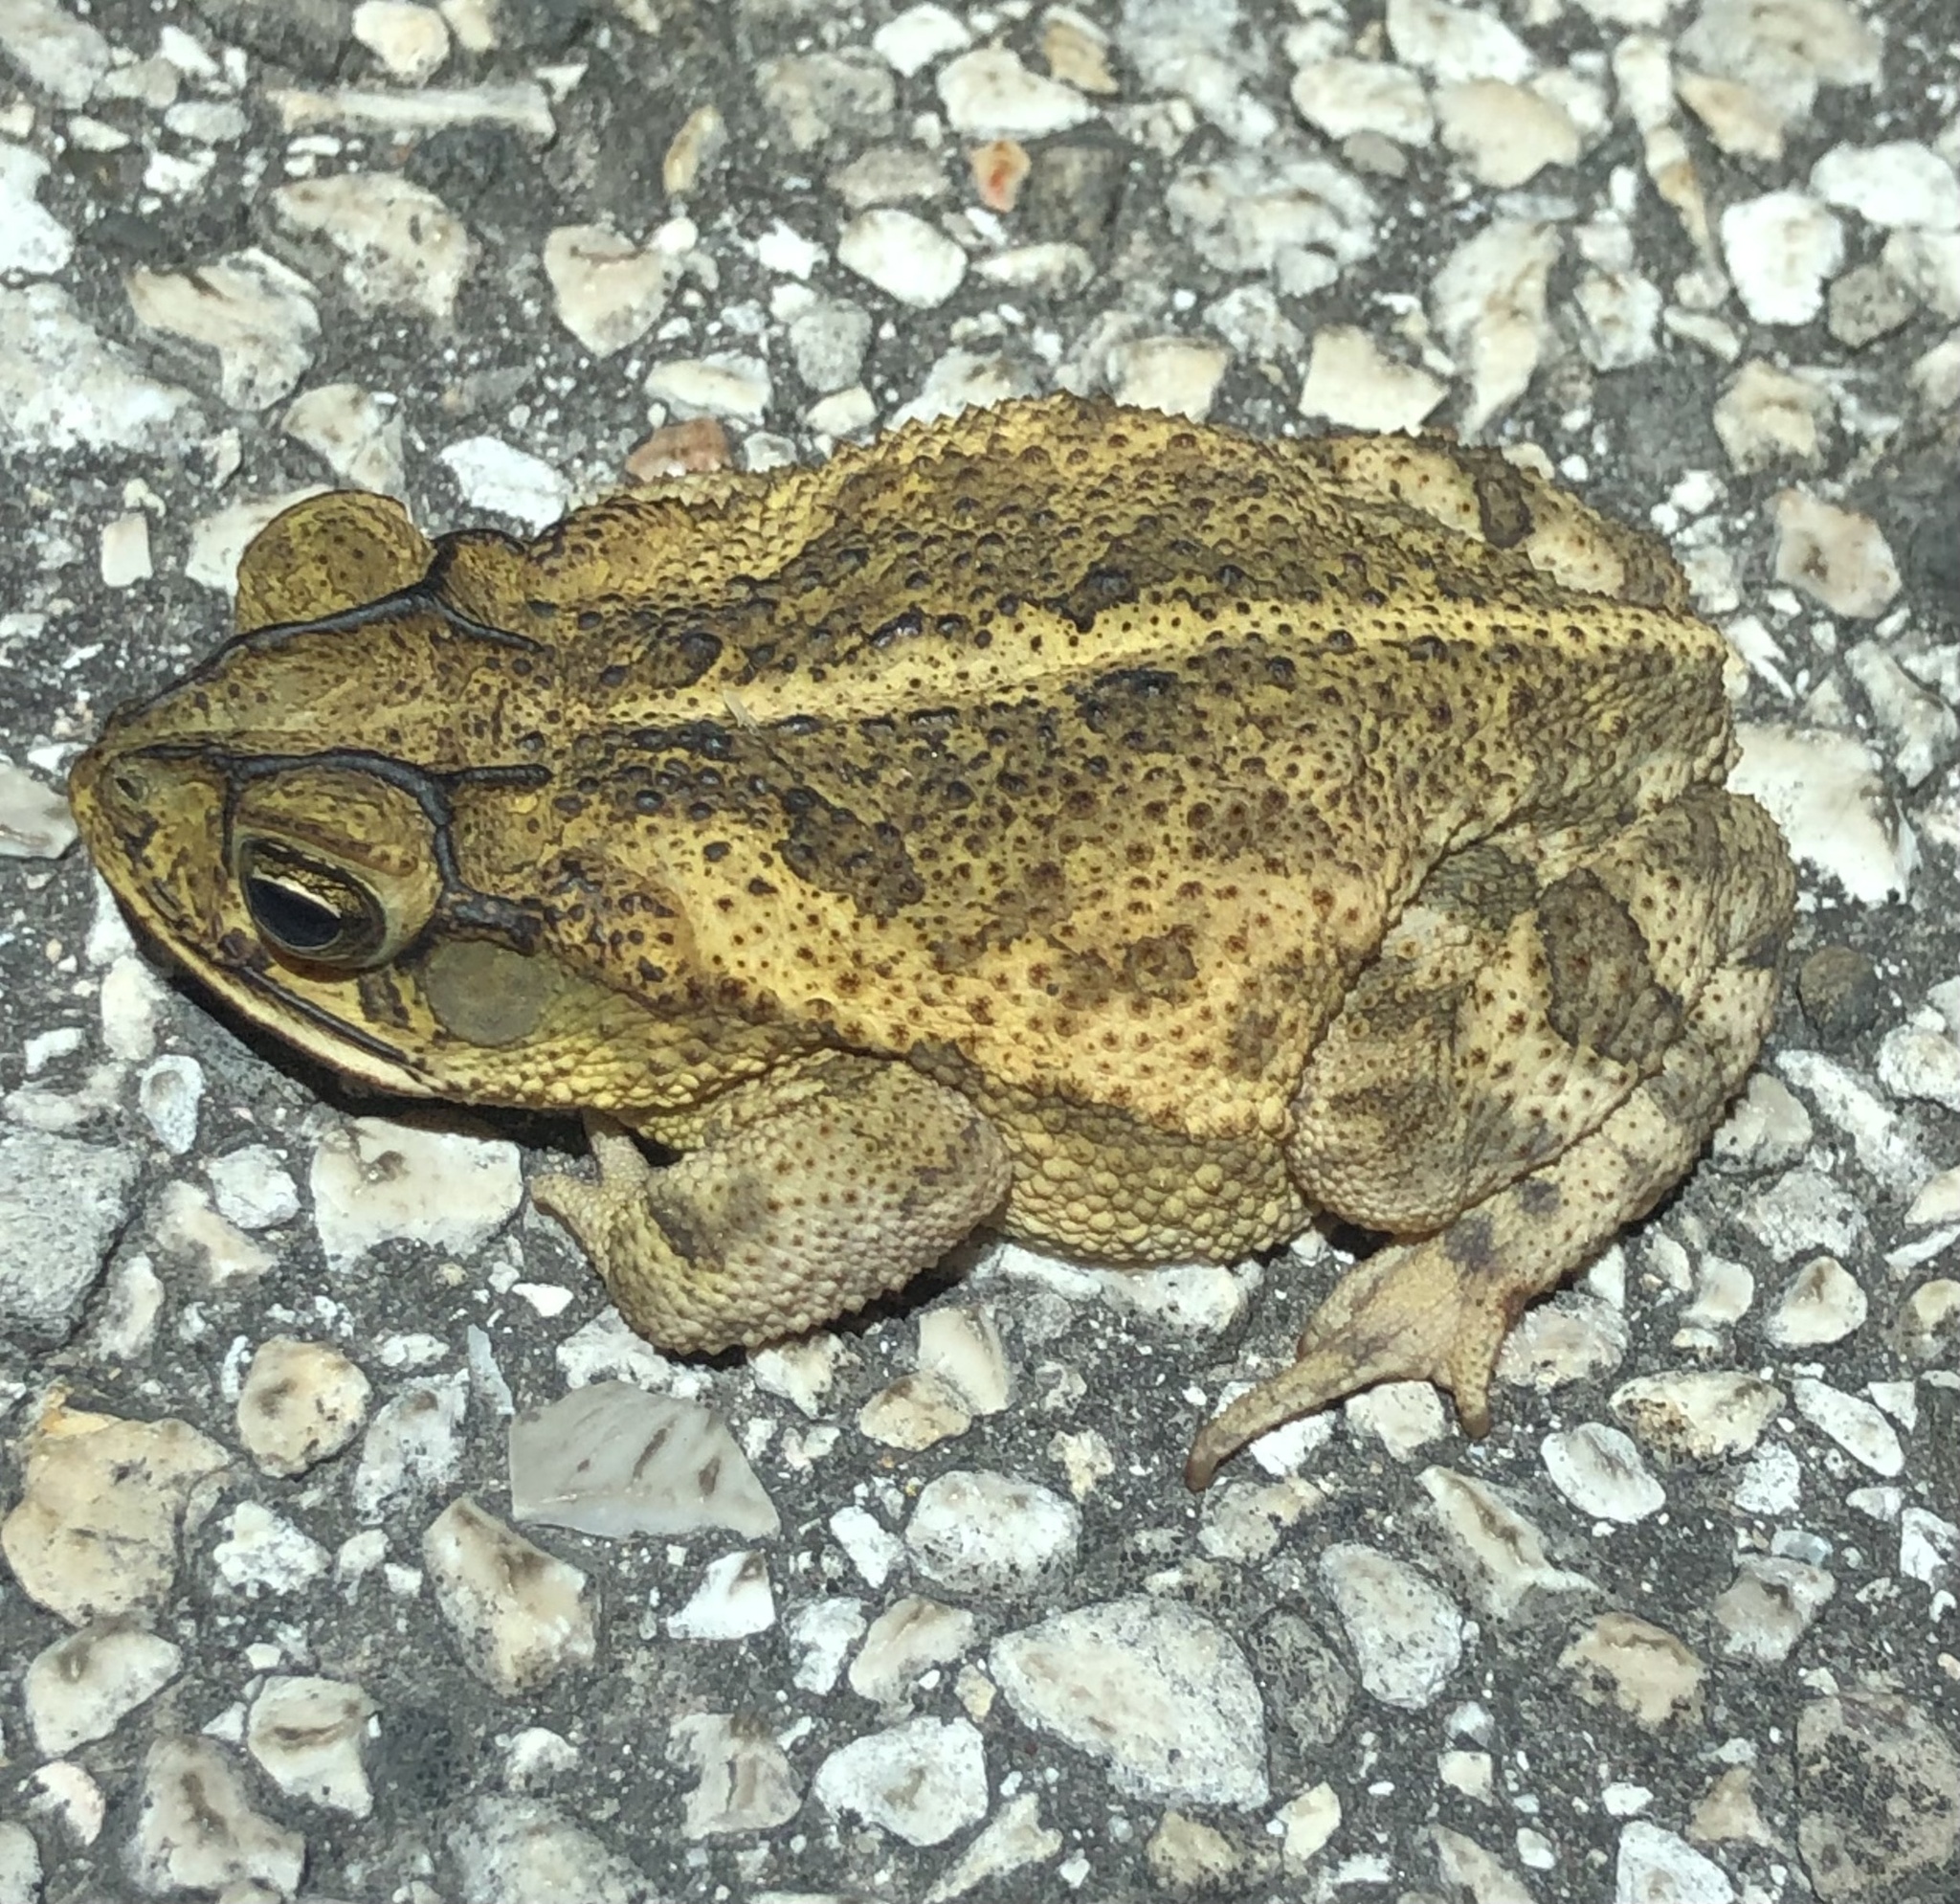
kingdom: Animalia
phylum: Chordata
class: Amphibia
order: Anura
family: Bufonidae
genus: Incilius
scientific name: Incilius nebulifer
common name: Gulf coast toad
